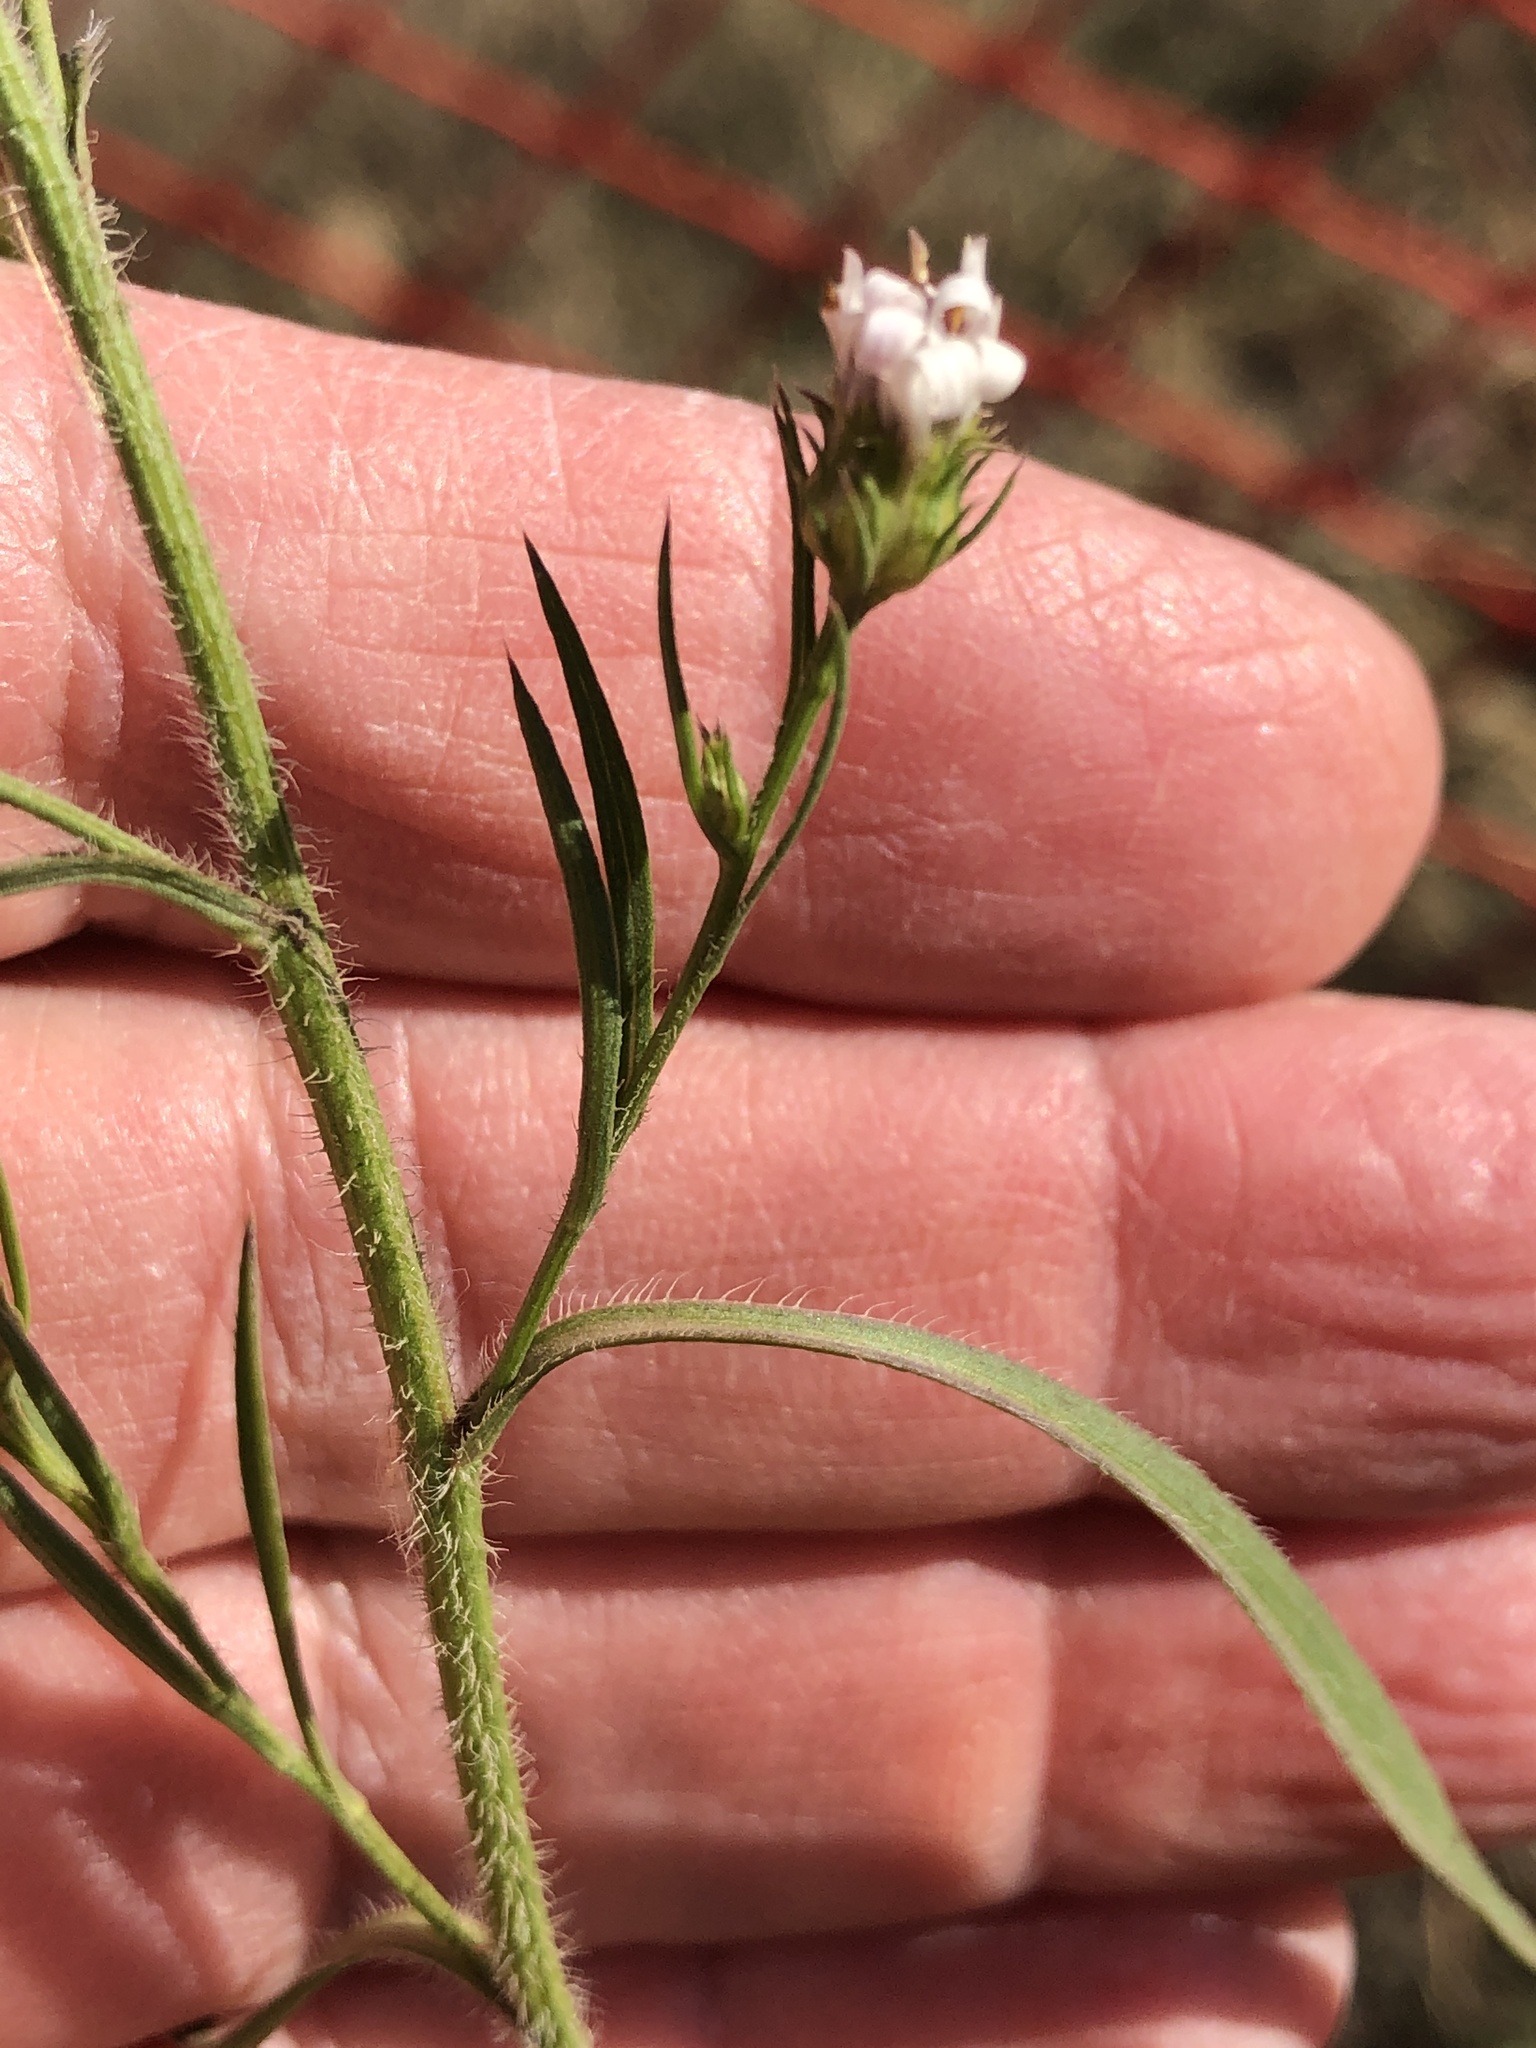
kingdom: Plantae
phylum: Tracheophyta
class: Magnoliopsida
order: Asterales
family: Asteraceae
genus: Symphyotrichum
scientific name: Symphyotrichum pilosum
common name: Awl aster
